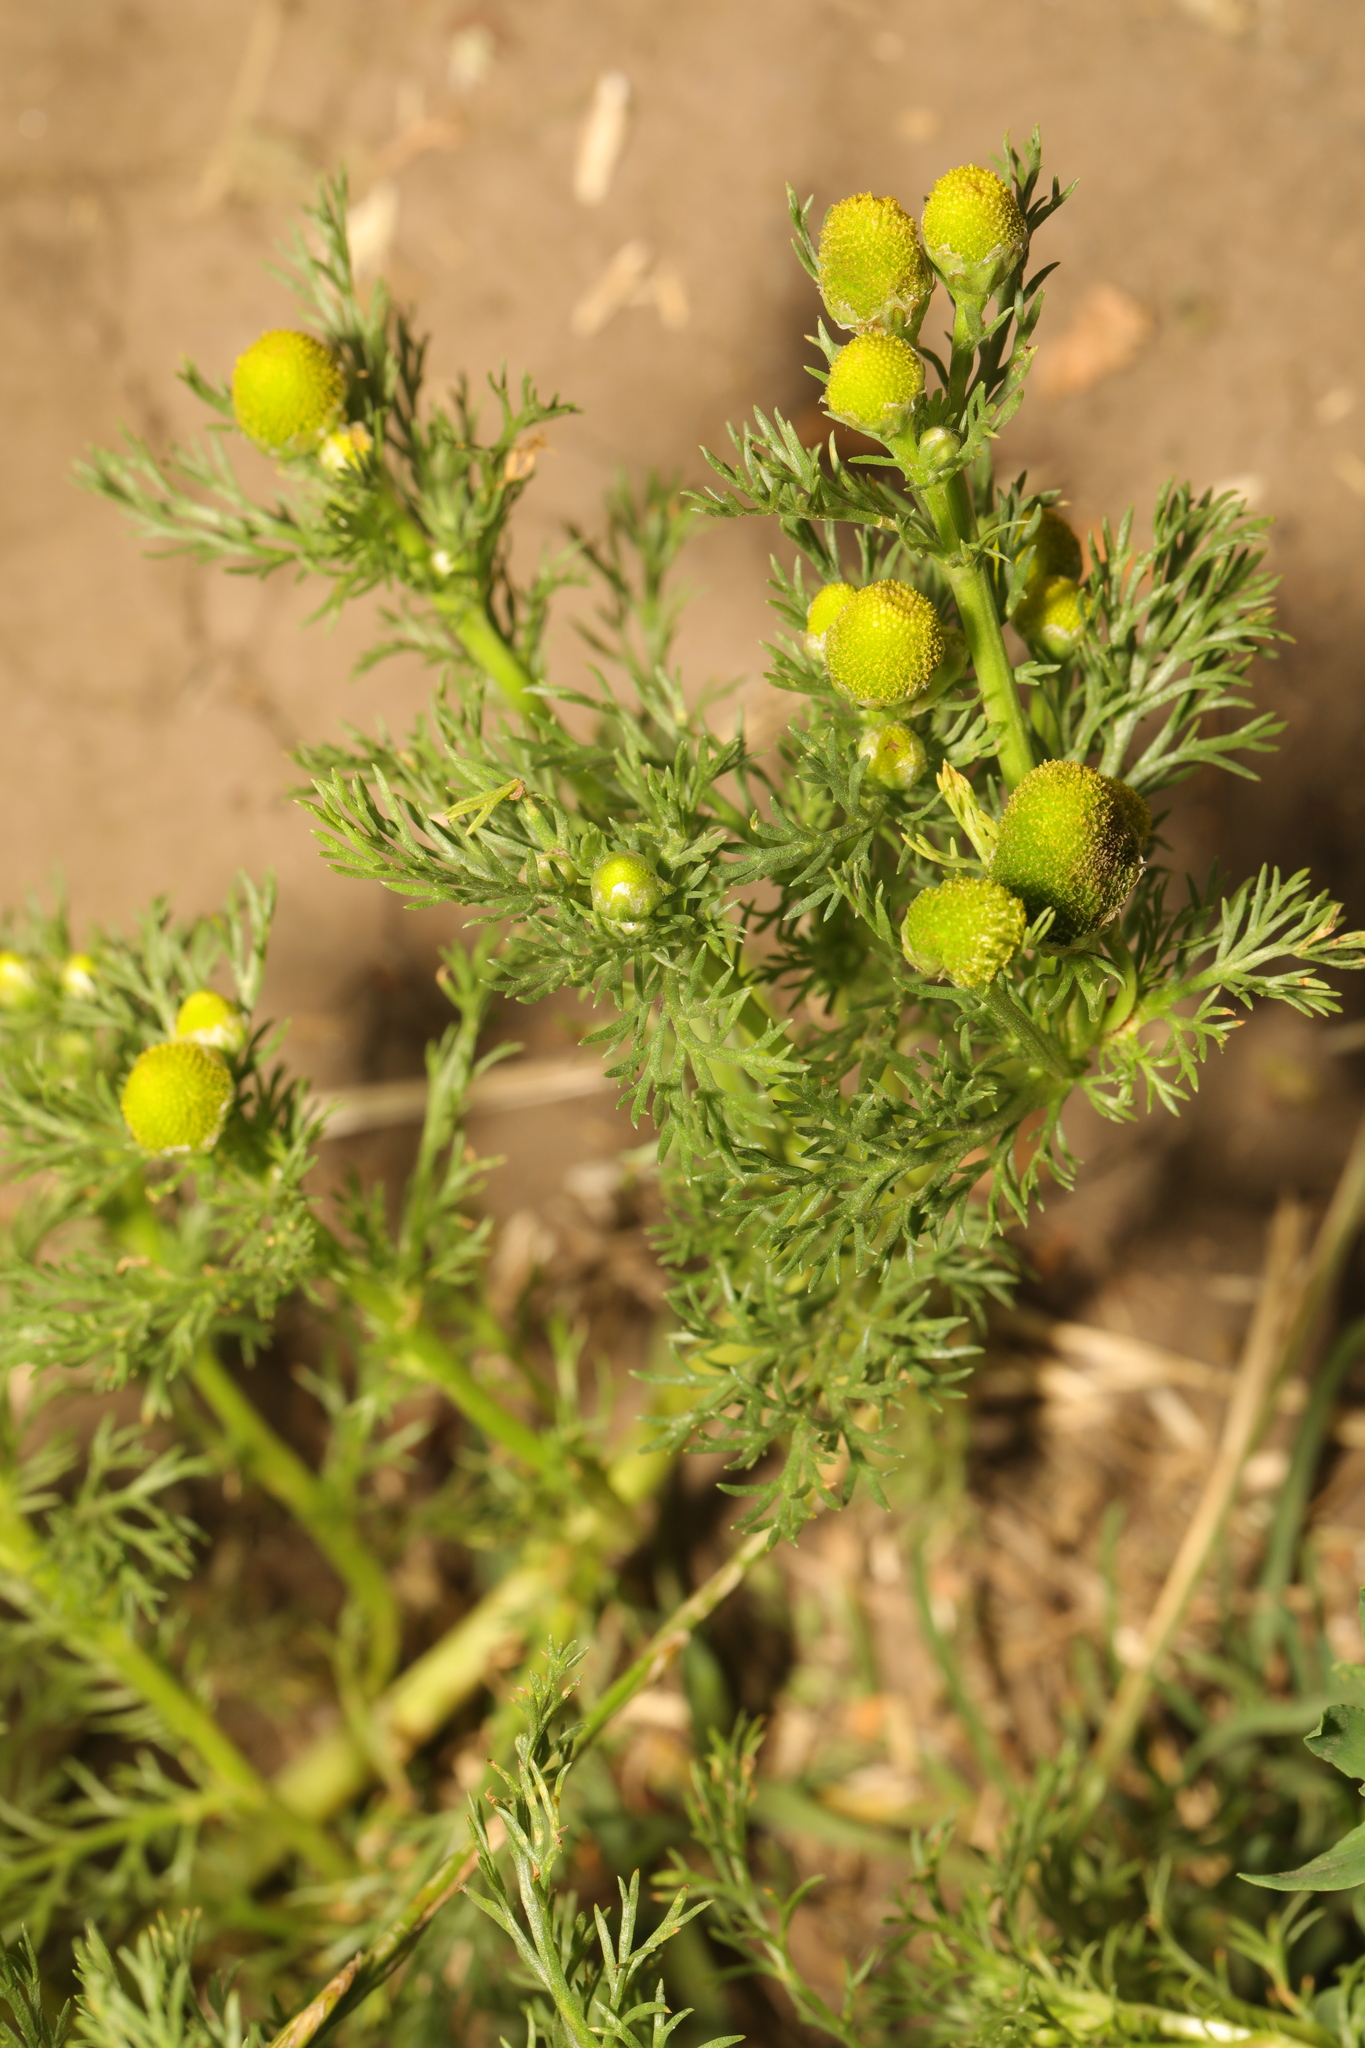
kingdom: Plantae
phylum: Tracheophyta
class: Magnoliopsida
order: Asterales
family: Asteraceae
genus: Matricaria
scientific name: Matricaria discoidea
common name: Disc mayweed
